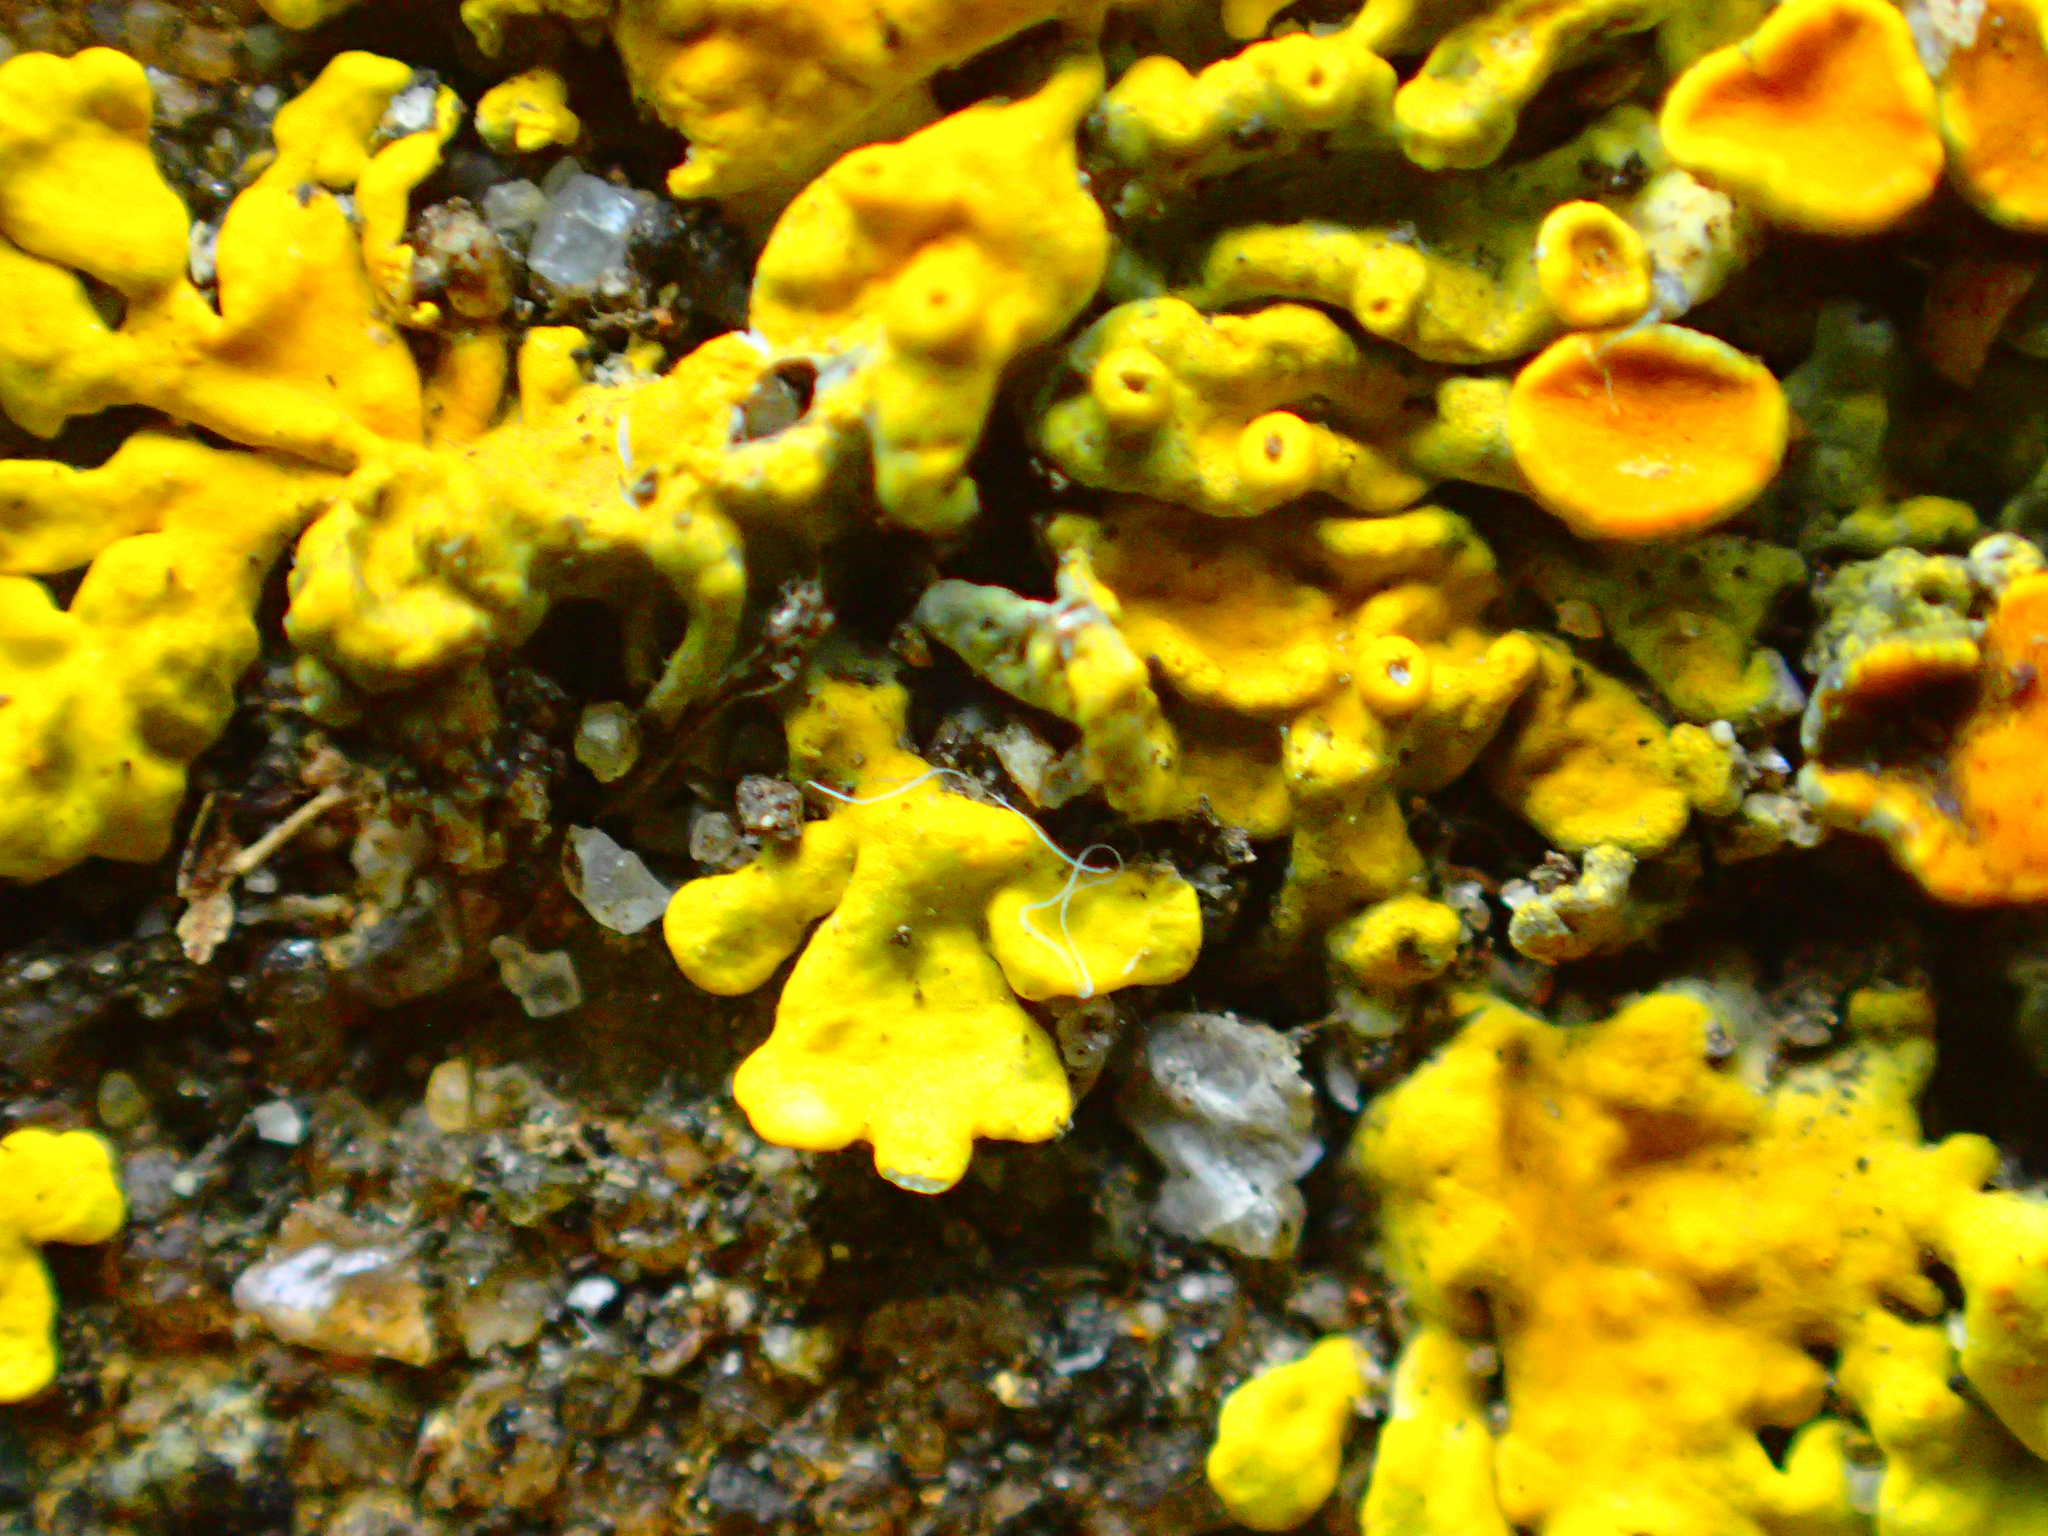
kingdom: Fungi
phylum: Ascomycota
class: Lecanoromycetes
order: Teloschistales
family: Teloschistaceae
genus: Xanthoria
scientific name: Xanthoria parietina
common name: Common orange lichen
